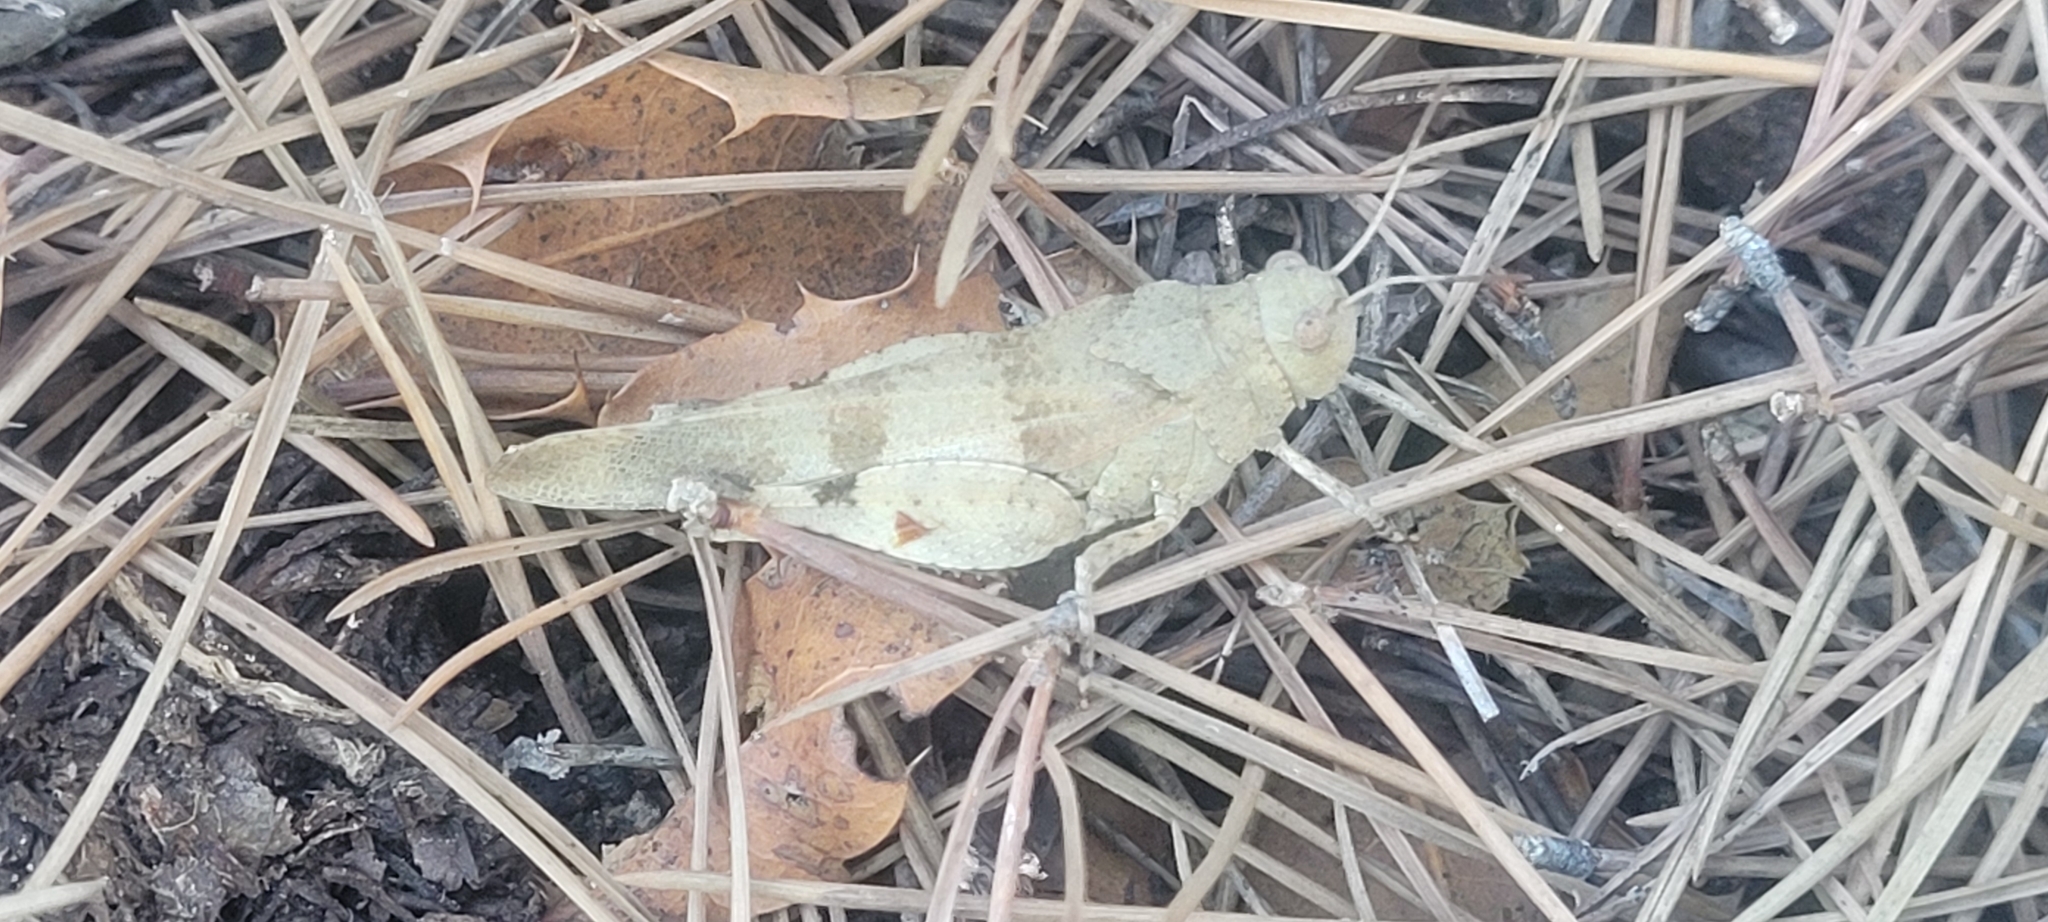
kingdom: Animalia
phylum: Arthropoda
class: Insecta
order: Orthoptera
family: Acrididae
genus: Oedipoda
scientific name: Oedipoda caerulescens
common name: Blue-winged grasshopper
